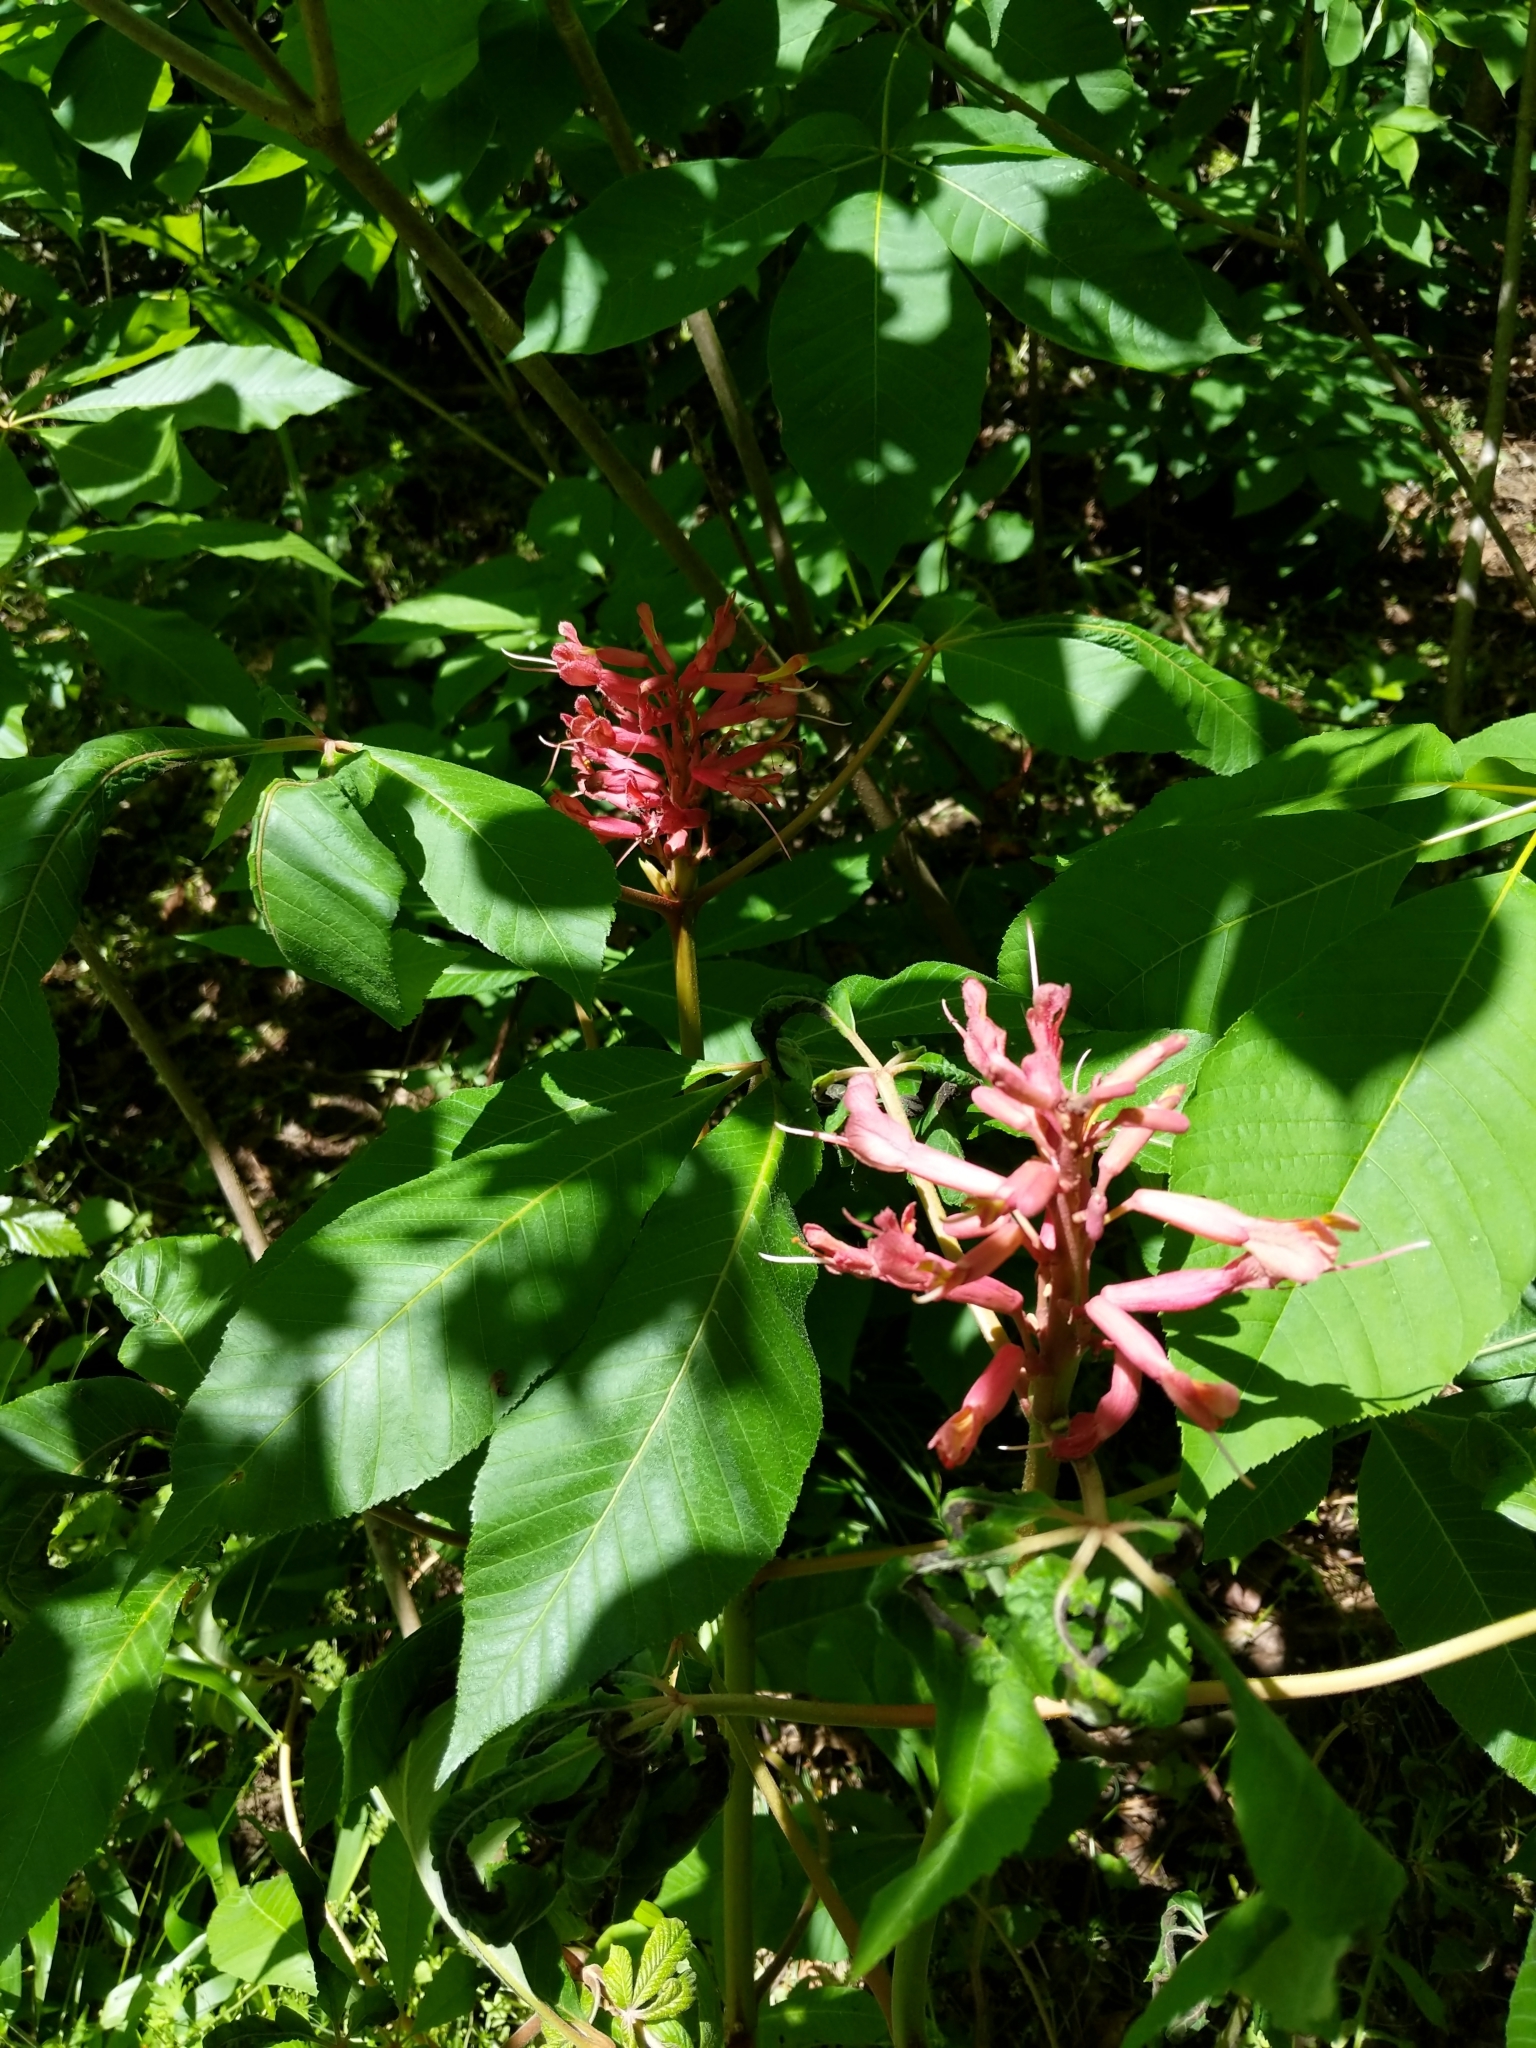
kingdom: Plantae
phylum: Tracheophyta
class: Magnoliopsida
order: Sapindales
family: Sapindaceae
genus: Aesculus
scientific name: Aesculus pavia
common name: Red buckeye
